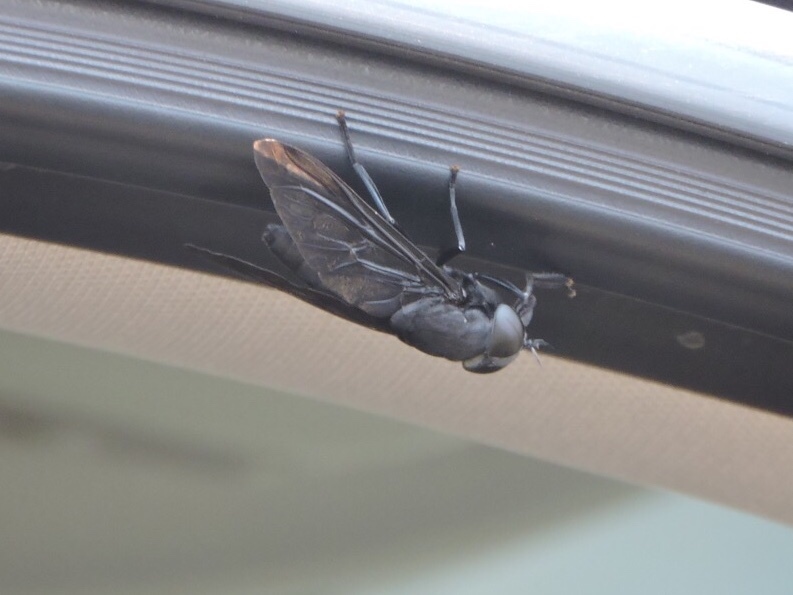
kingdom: Animalia
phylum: Arthropoda
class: Insecta
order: Diptera
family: Tabanidae
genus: Tabanus
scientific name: Tabanus atratus
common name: Black horse fly
